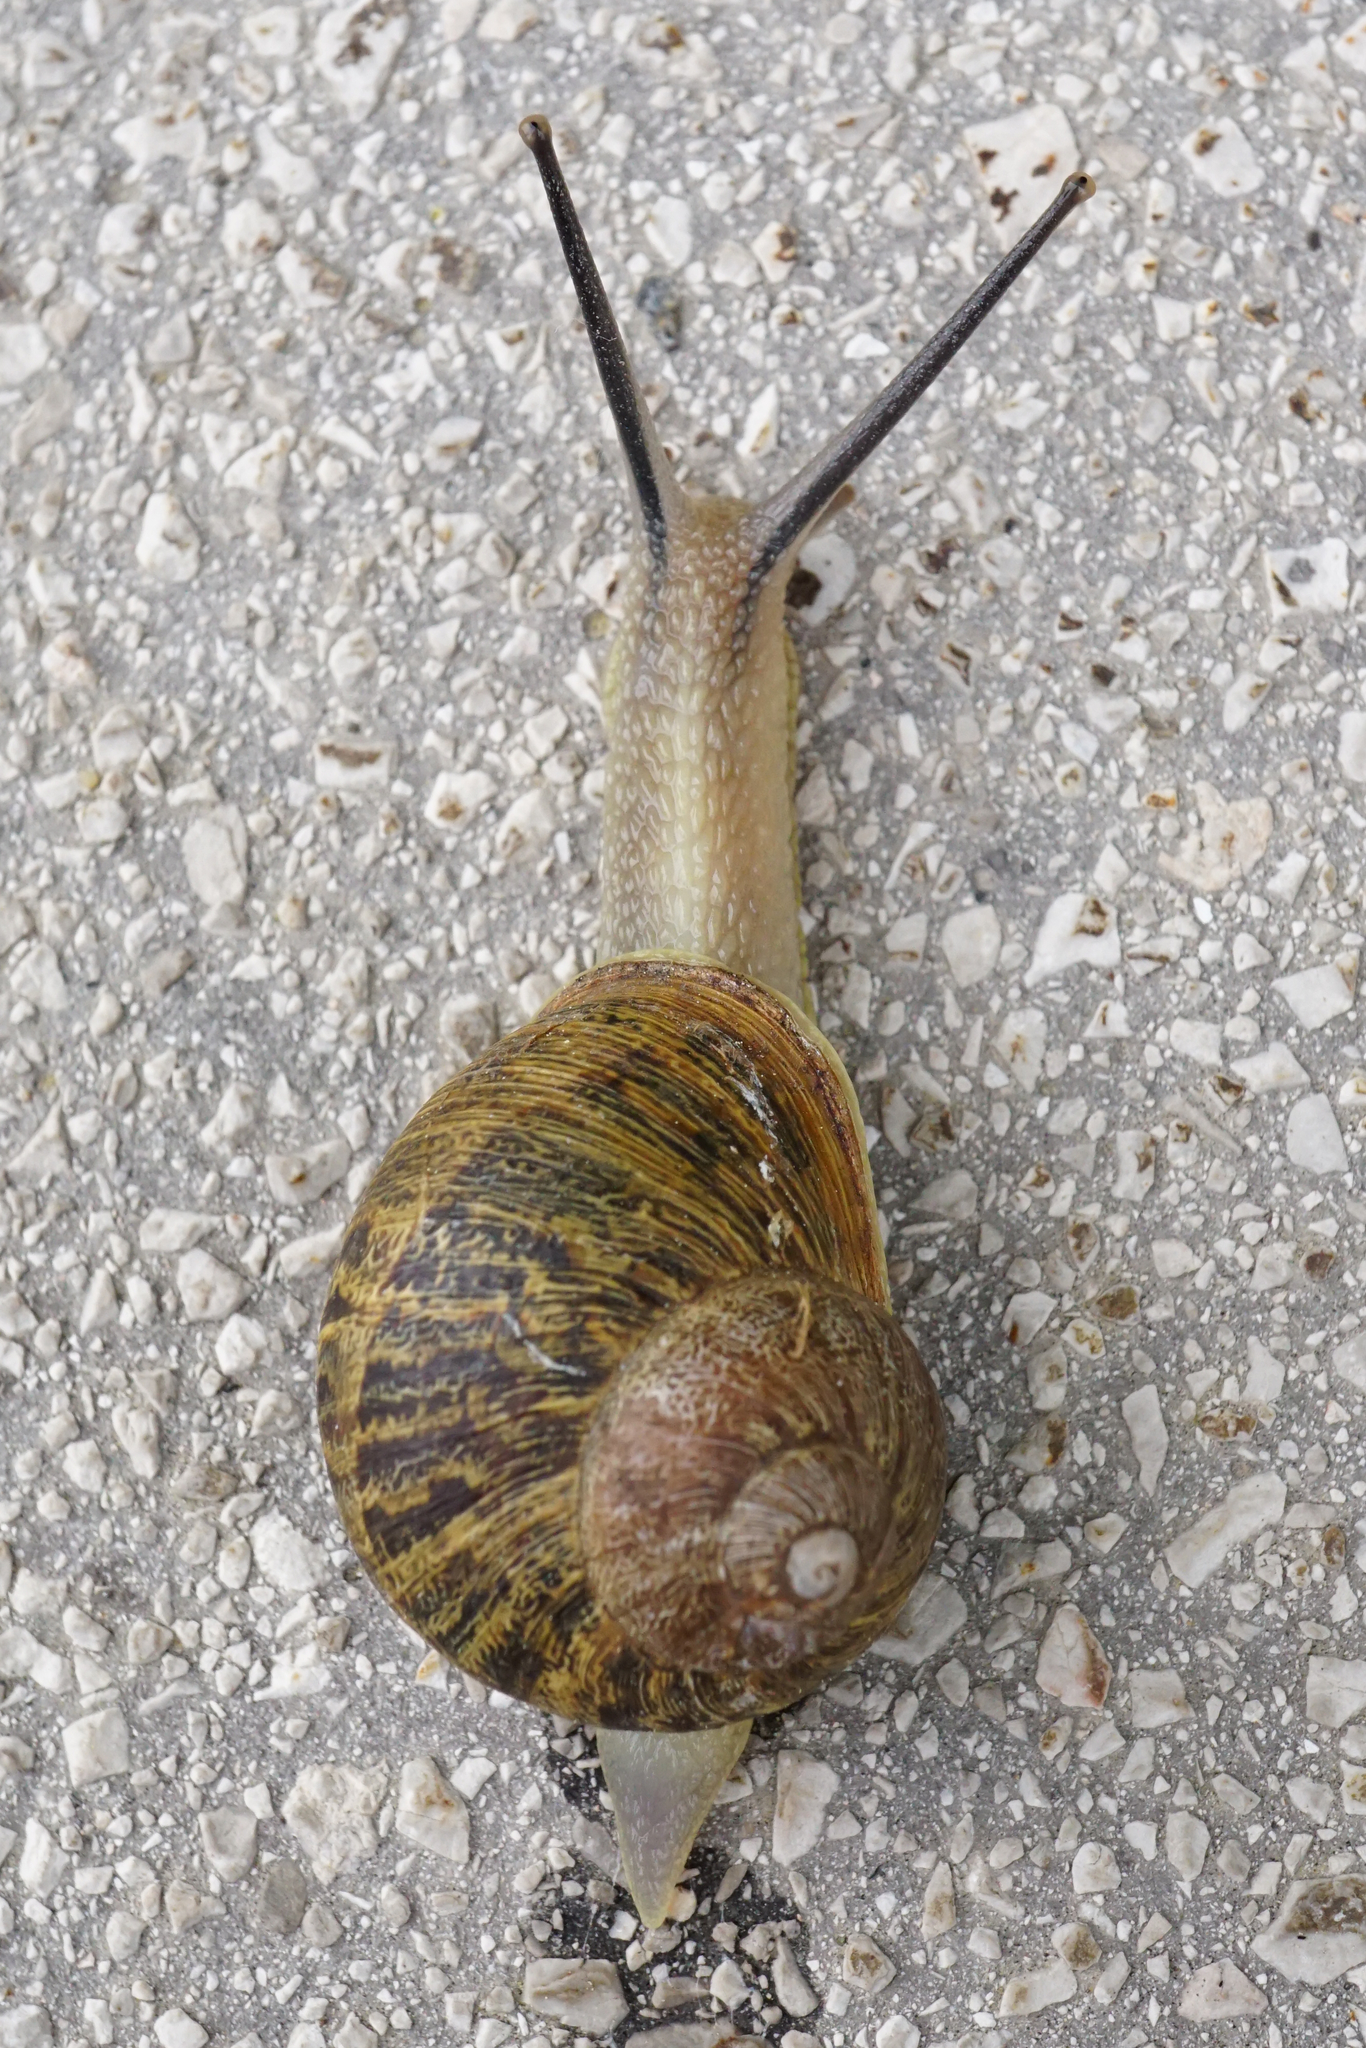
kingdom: Animalia
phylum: Mollusca
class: Gastropoda
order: Stylommatophora
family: Helicidae
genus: Cornu
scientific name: Cornu aspersum
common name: Brown garden snail
